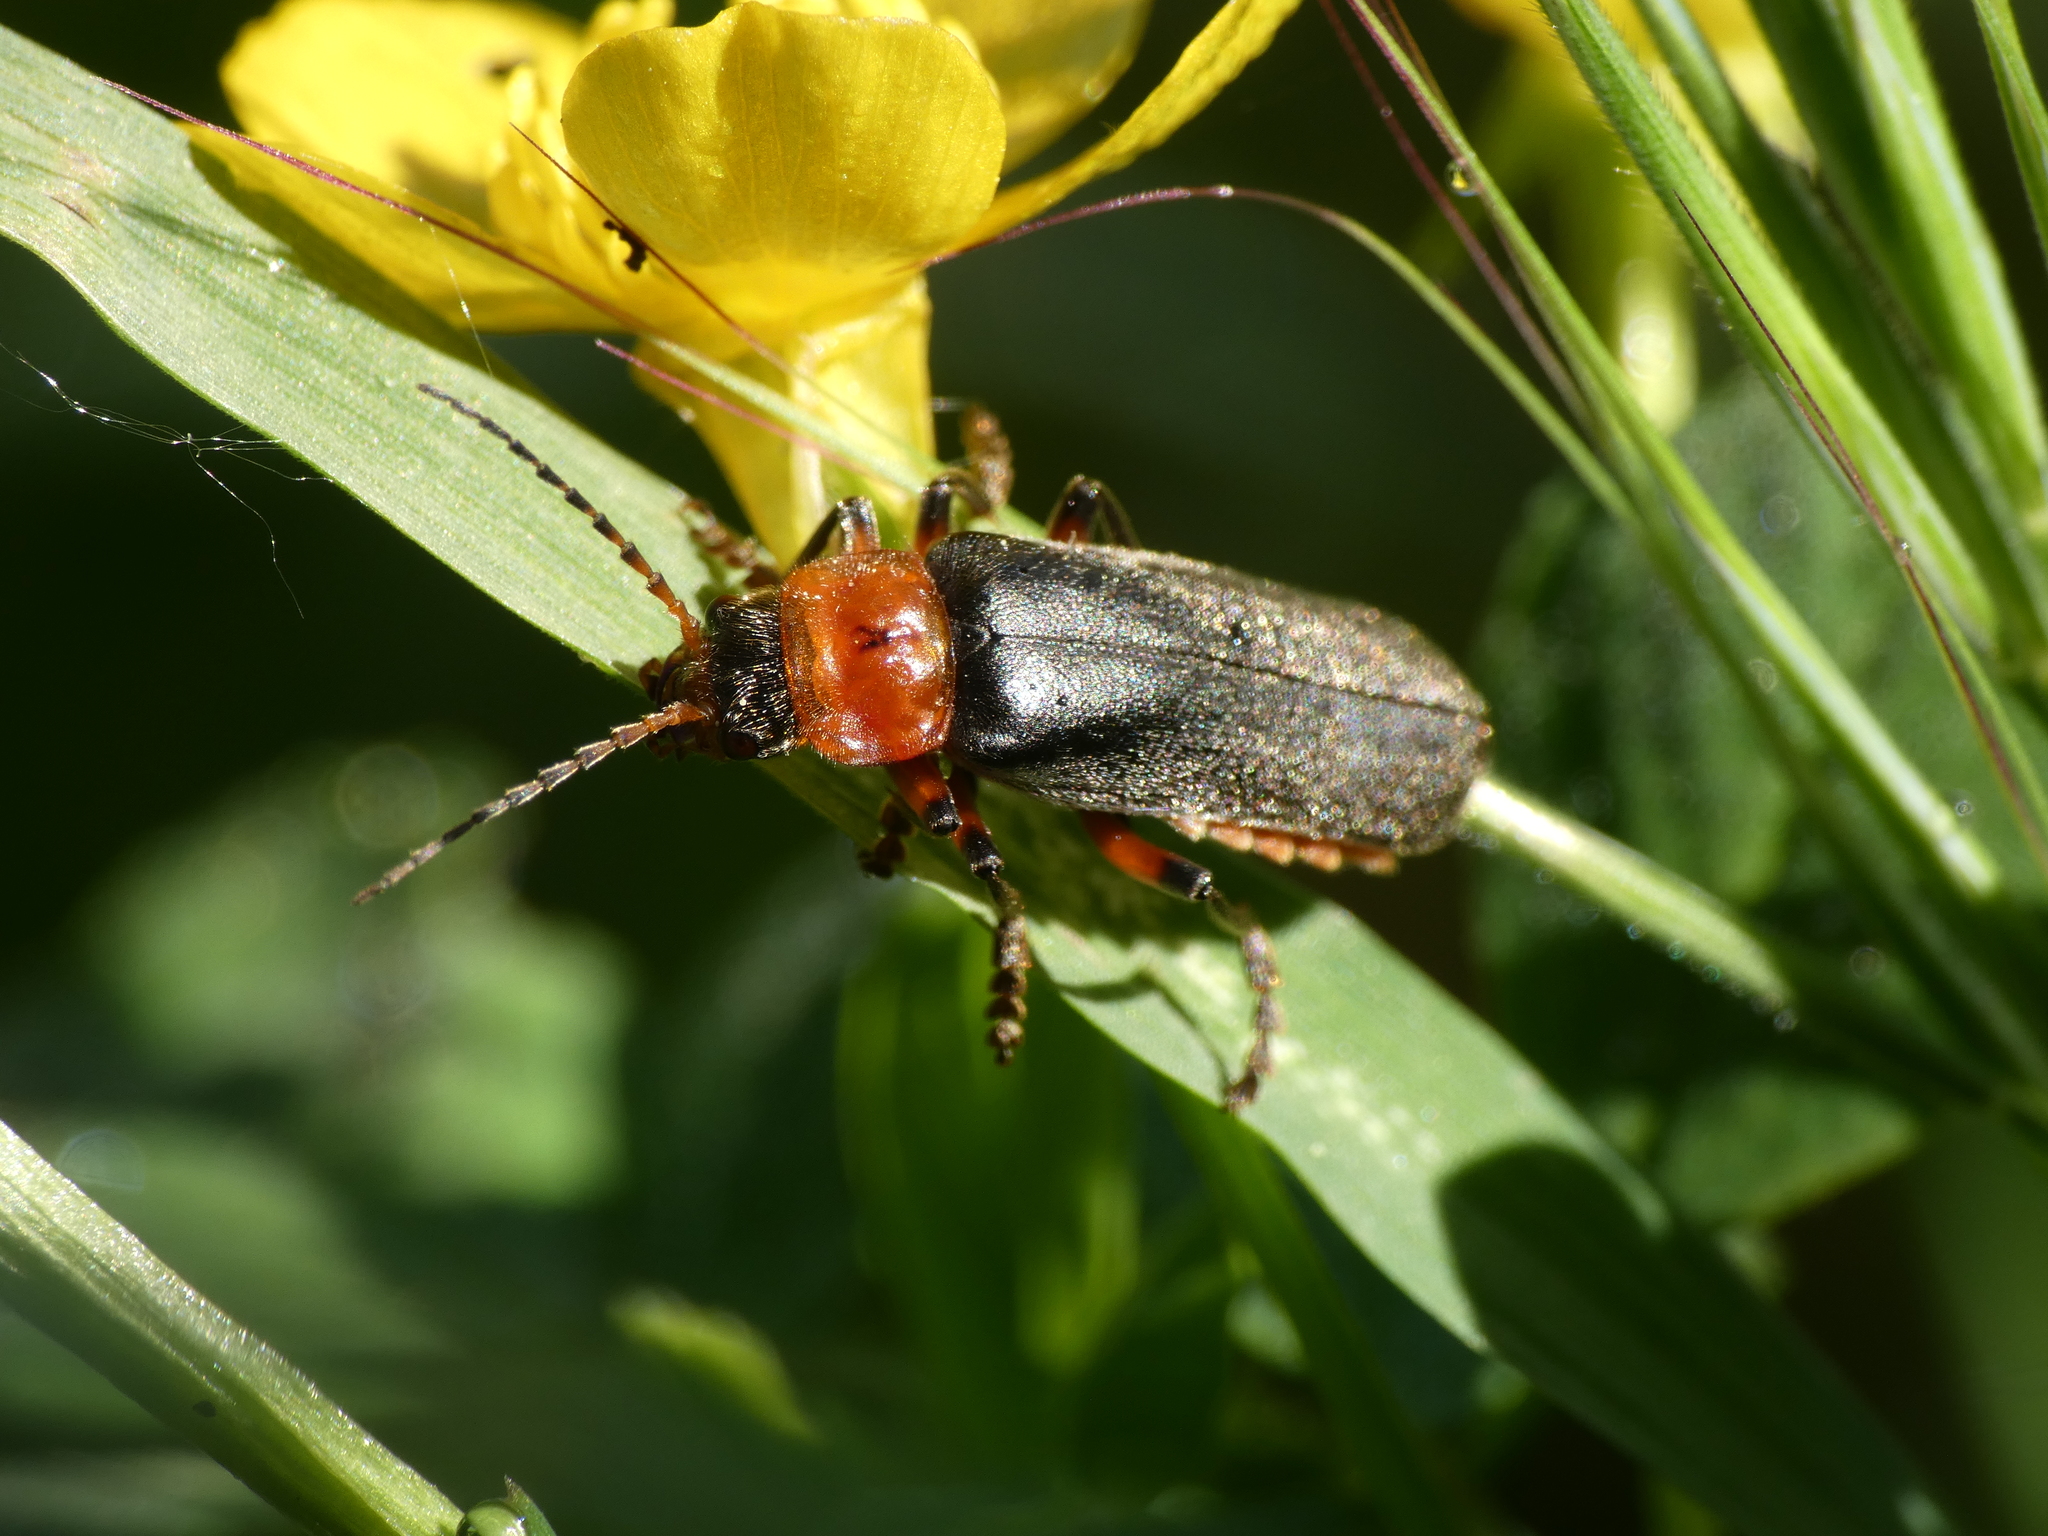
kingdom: Animalia
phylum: Arthropoda
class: Insecta
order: Coleoptera
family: Cantharidae
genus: Cantharis
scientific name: Cantharis rustica
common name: Soldier beetle
